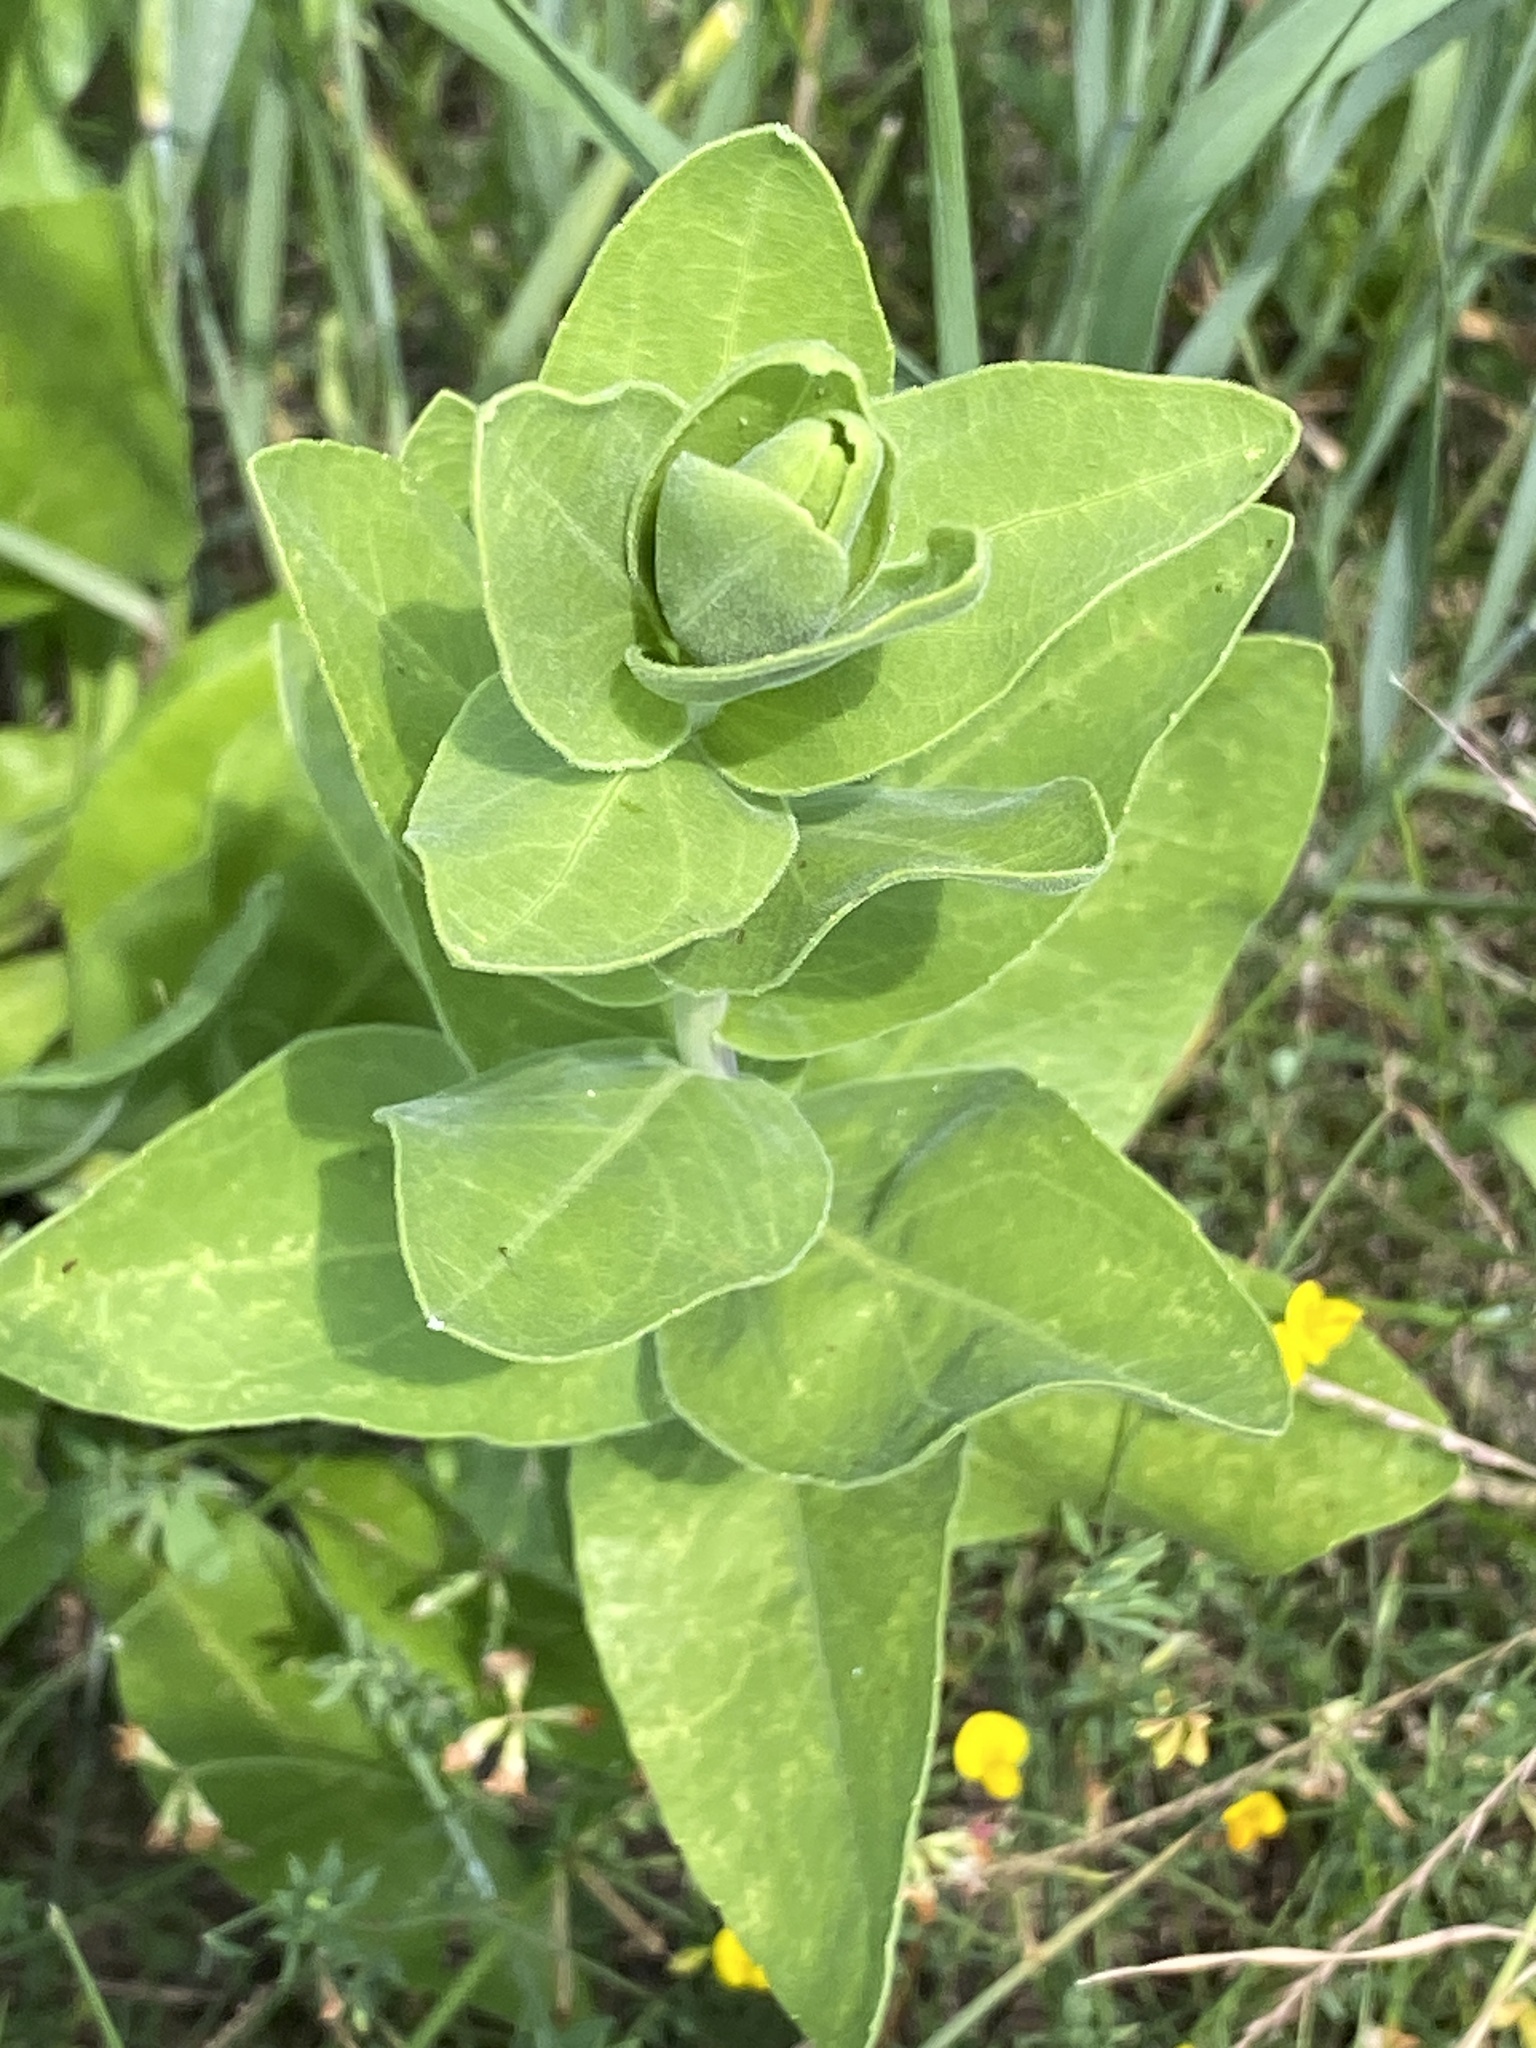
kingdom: Plantae
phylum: Tracheophyta
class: Magnoliopsida
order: Asterales
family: Asteraceae
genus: Solidago
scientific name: Solidago rigida
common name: Rigid goldenrod
